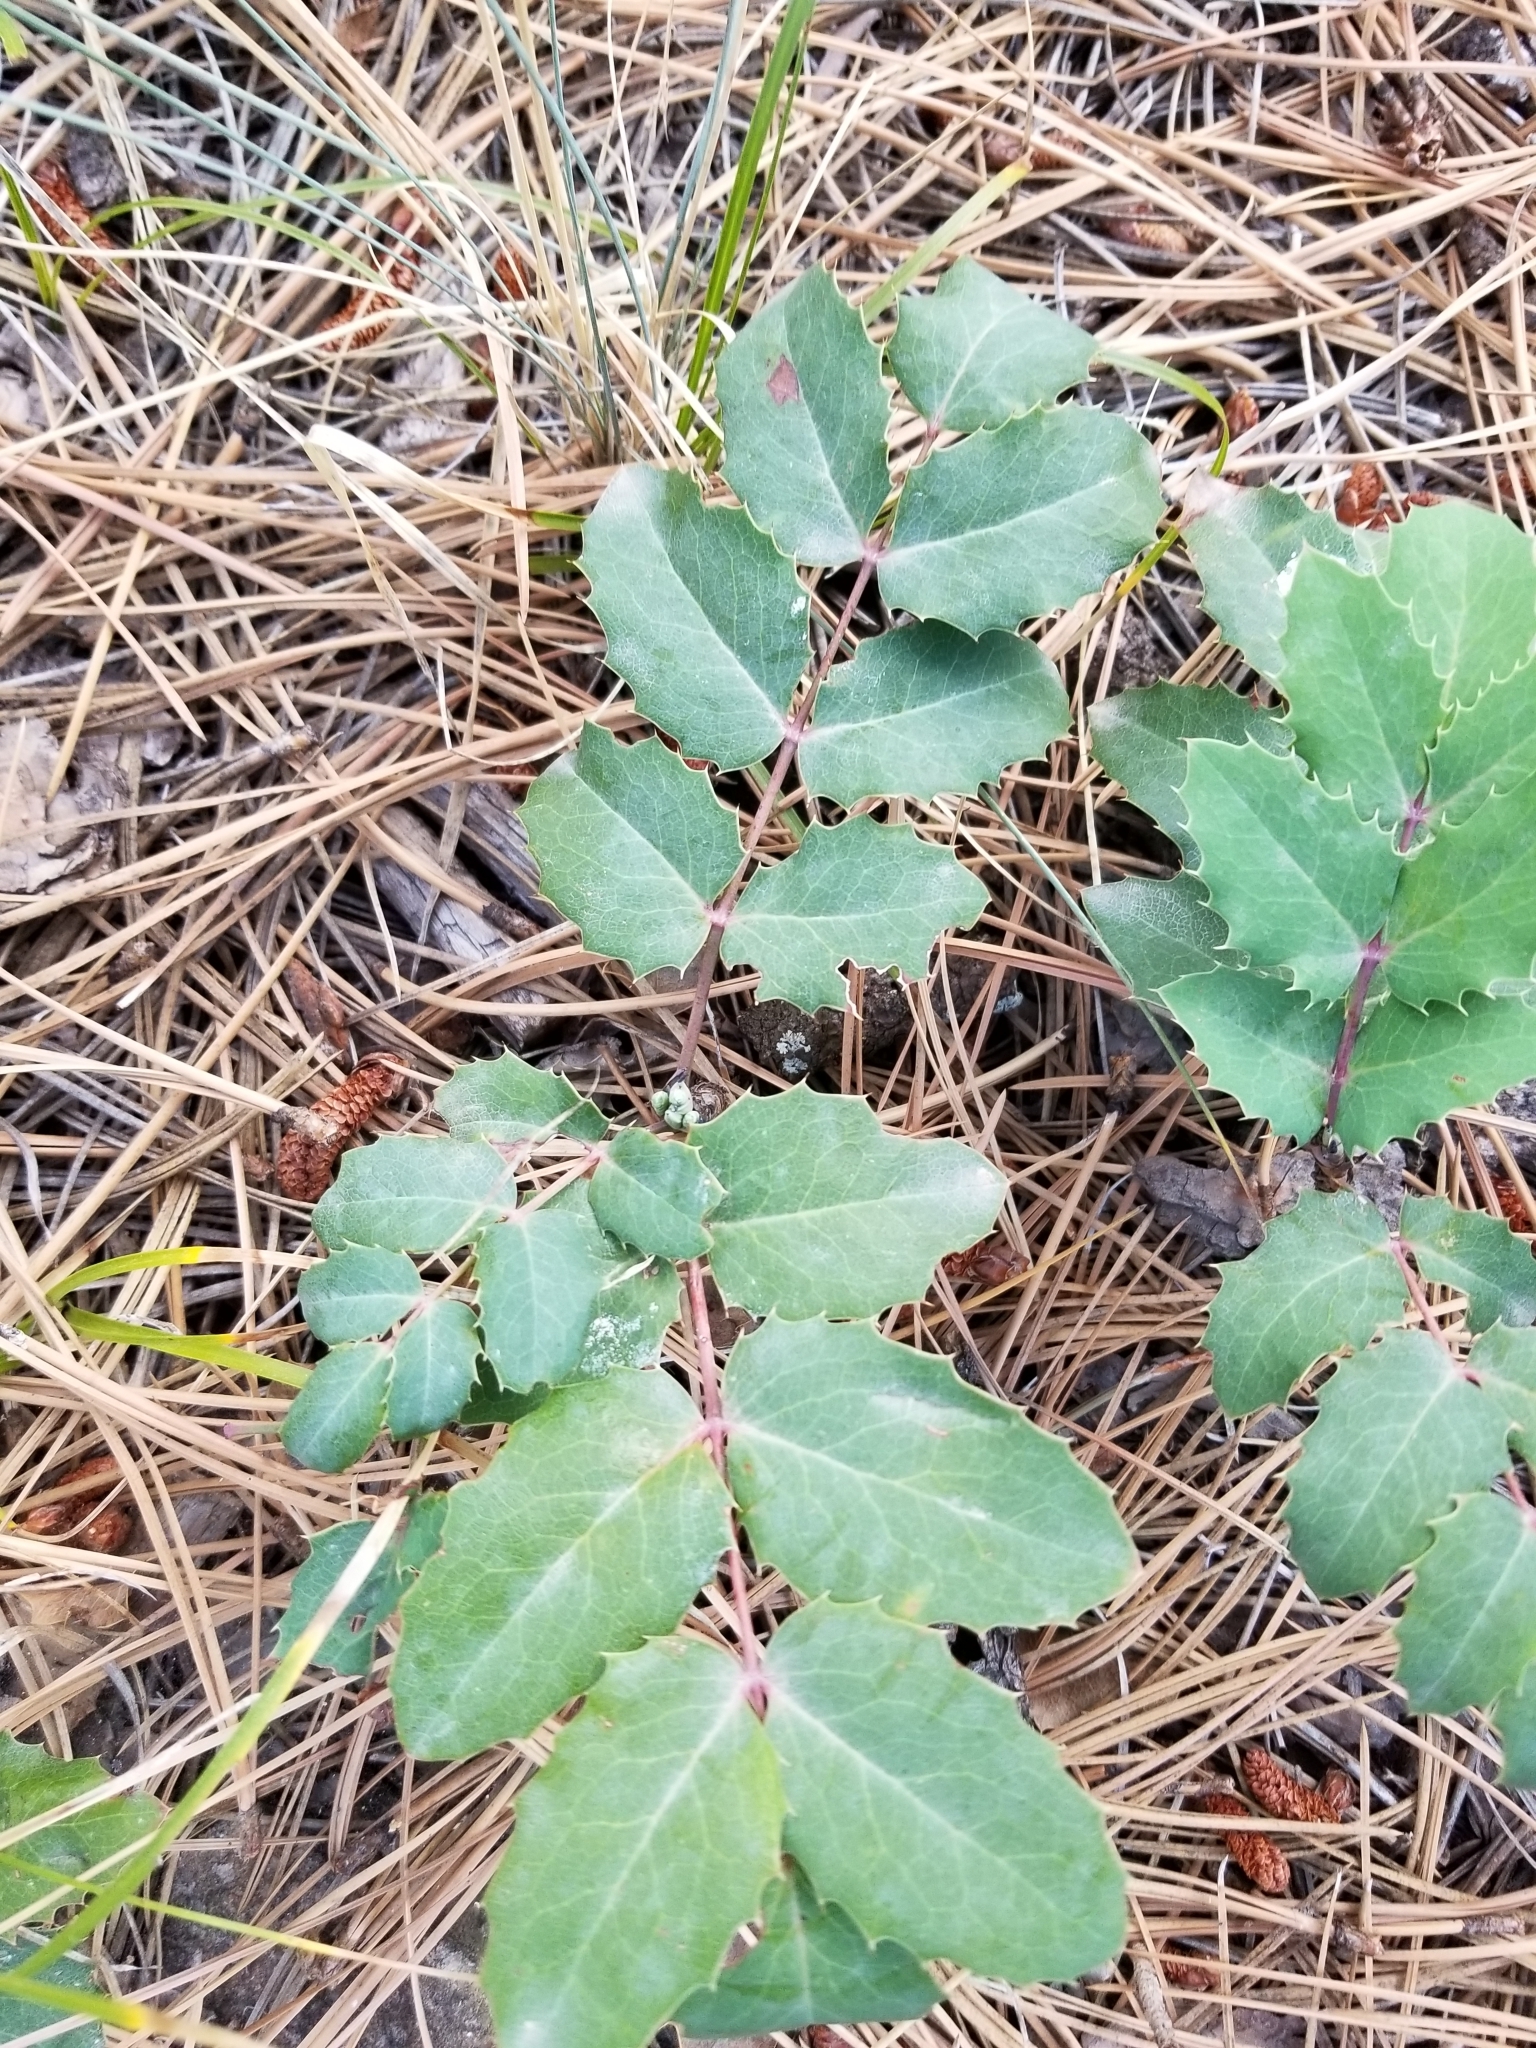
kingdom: Plantae
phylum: Tracheophyta
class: Magnoliopsida
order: Ranunculales
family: Berberidaceae
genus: Mahonia
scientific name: Mahonia repens
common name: Creeping oregon-grape
